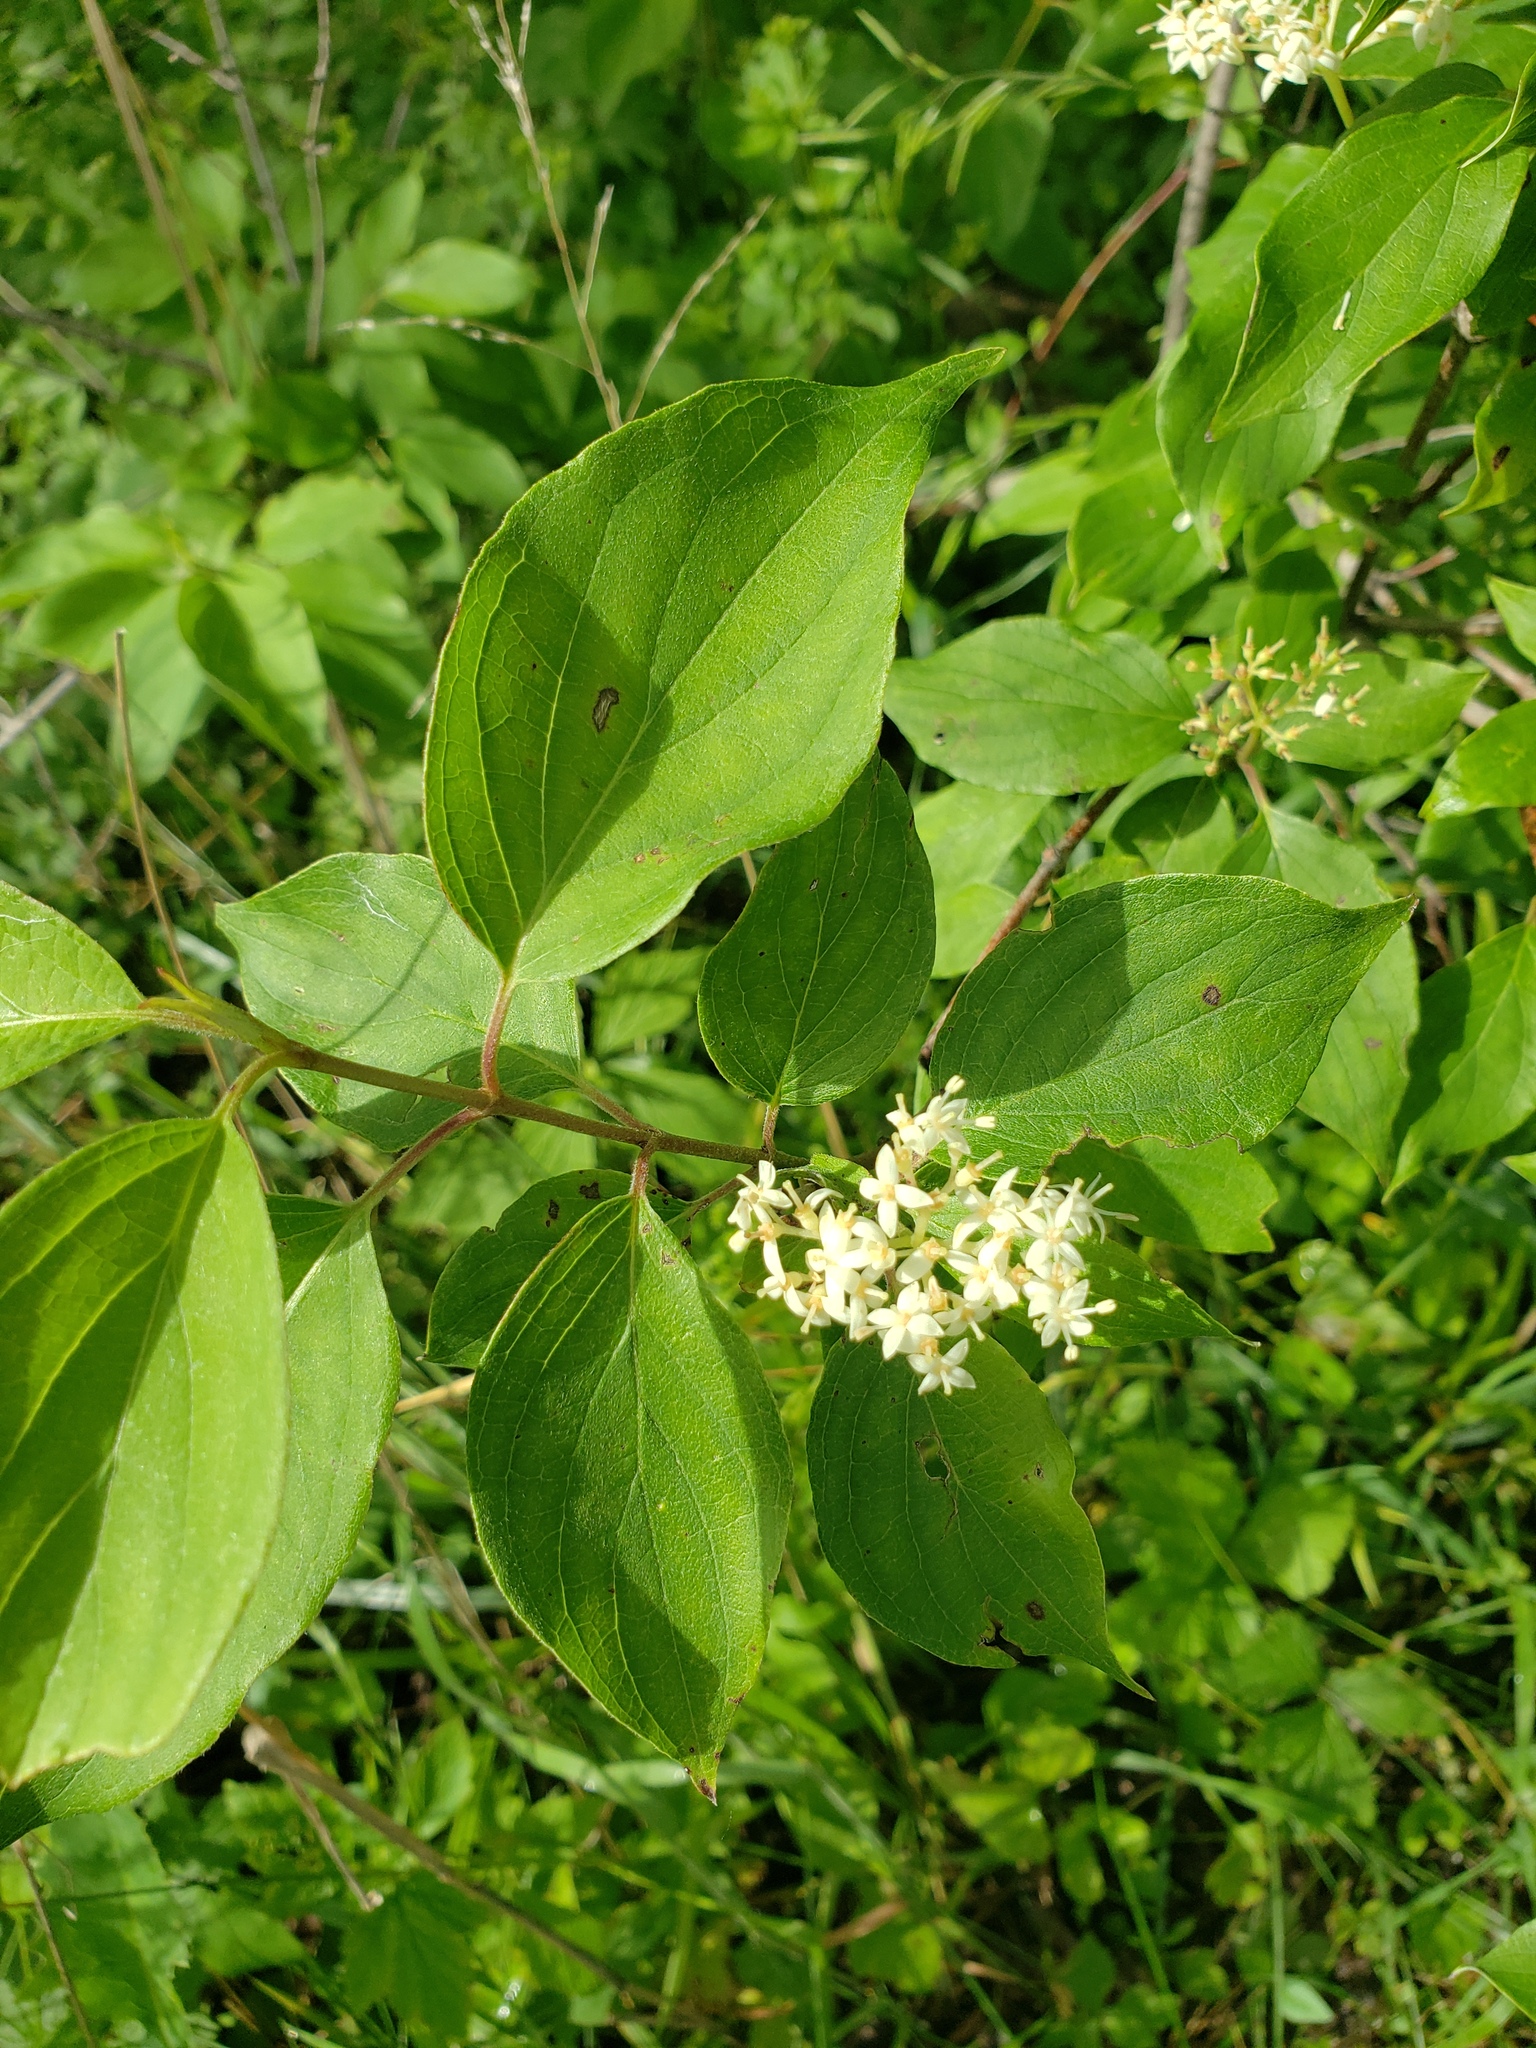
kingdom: Plantae
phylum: Tracheophyta
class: Magnoliopsida
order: Cornales
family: Cornaceae
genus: Cornus
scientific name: Cornus drummondii
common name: Rough-leaf dogwood
